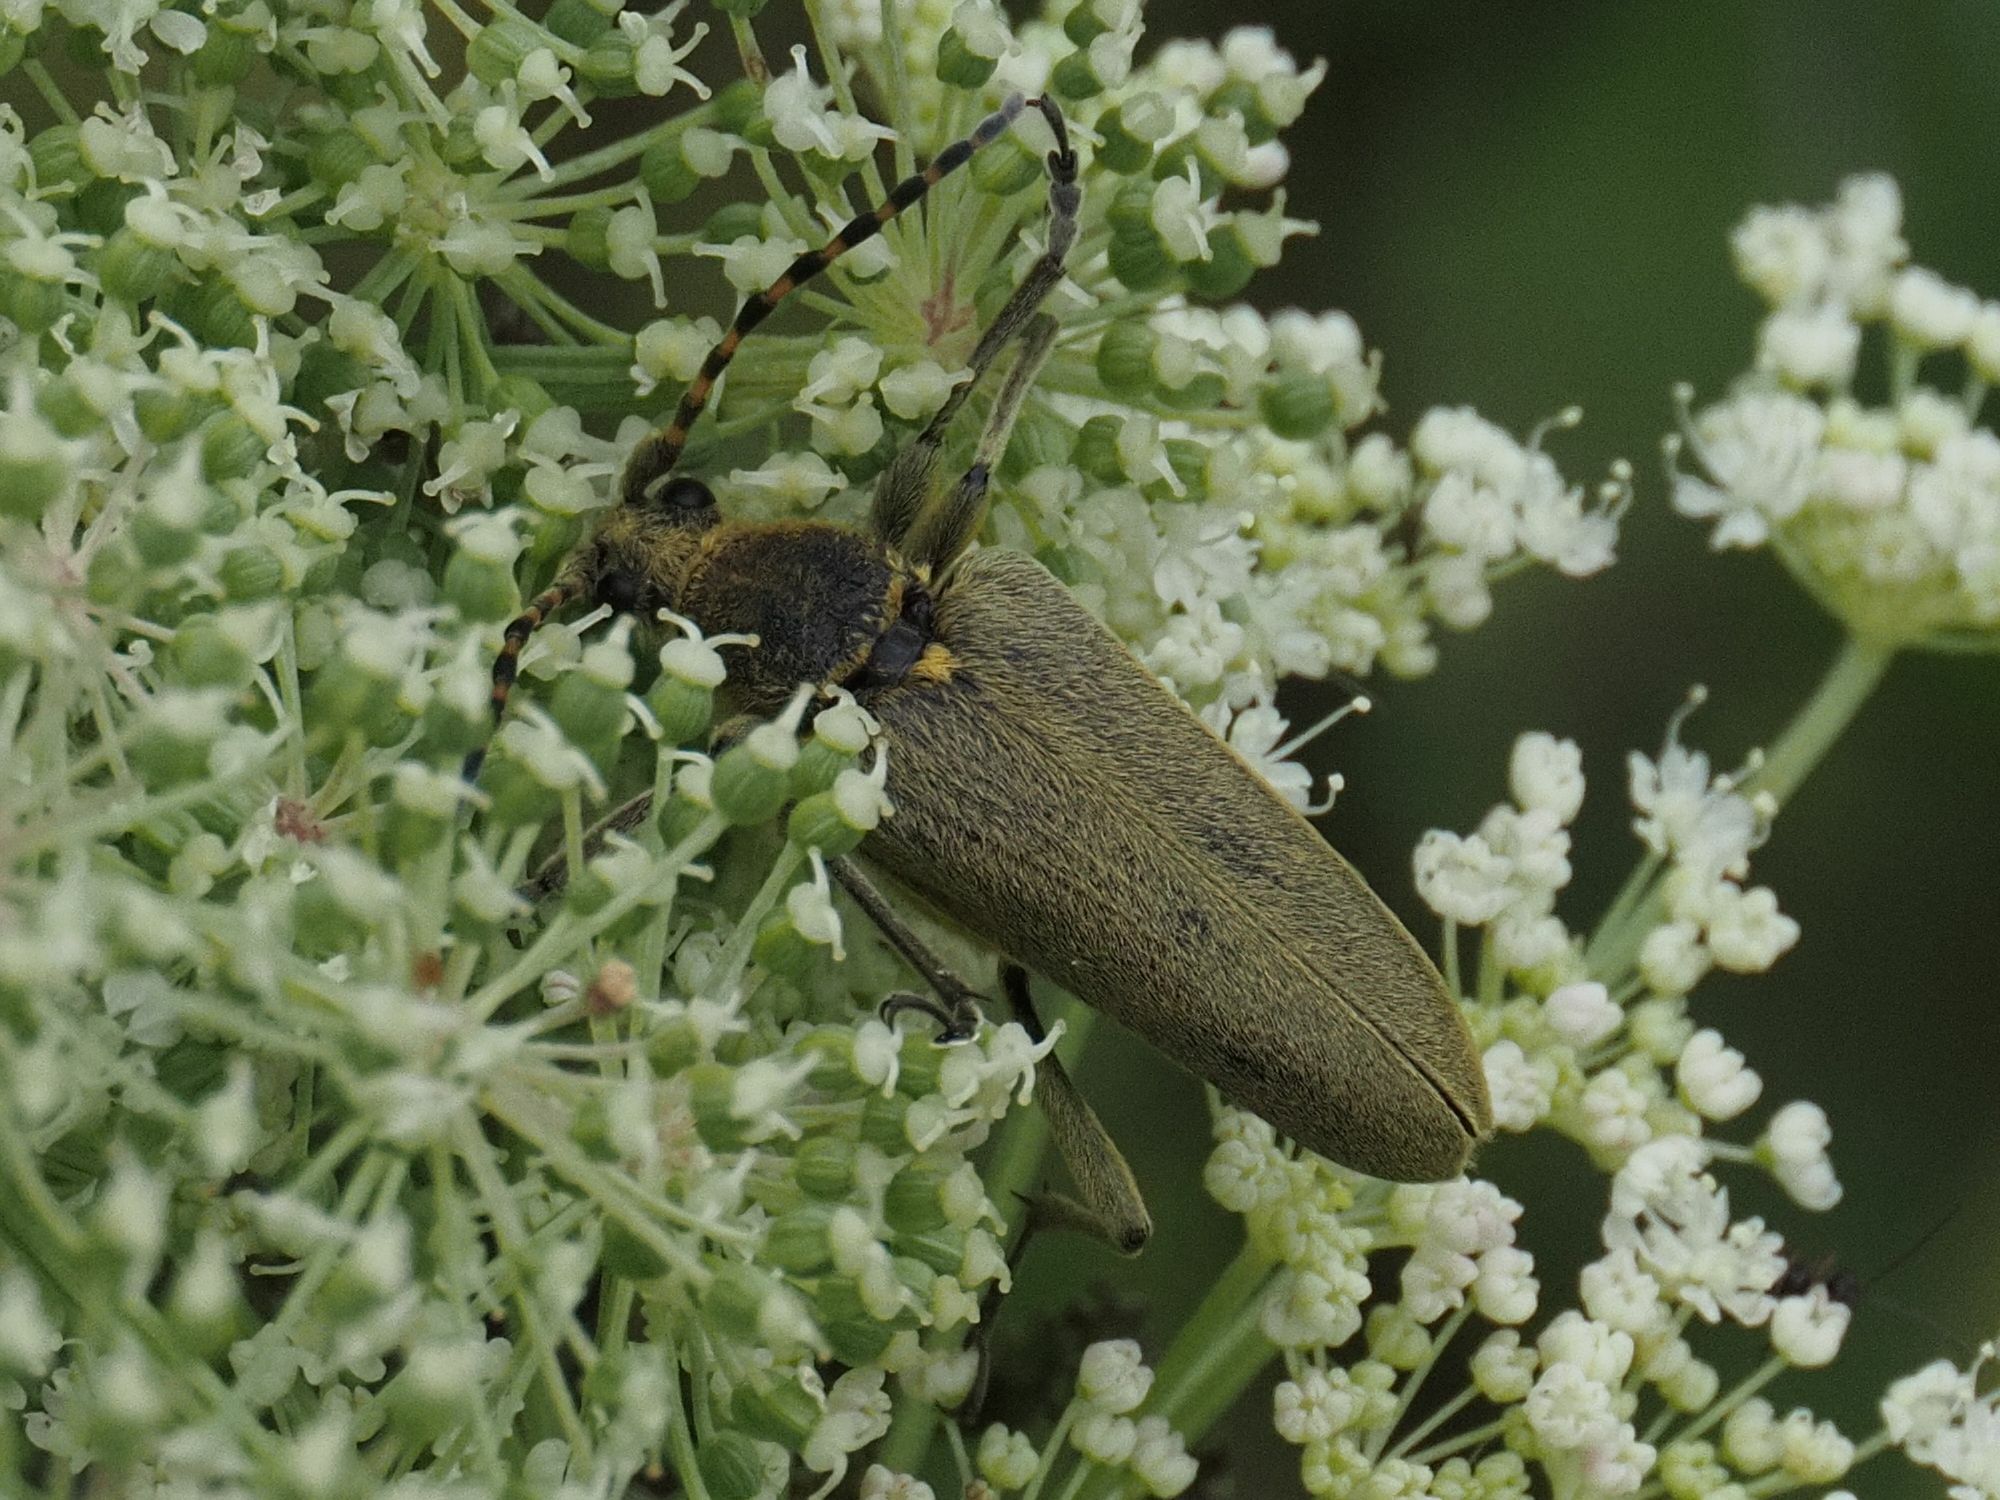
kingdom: Animalia
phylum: Arthropoda
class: Insecta
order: Coleoptera
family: Cerambycidae
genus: Lepturobosca
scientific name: Lepturobosca virens
